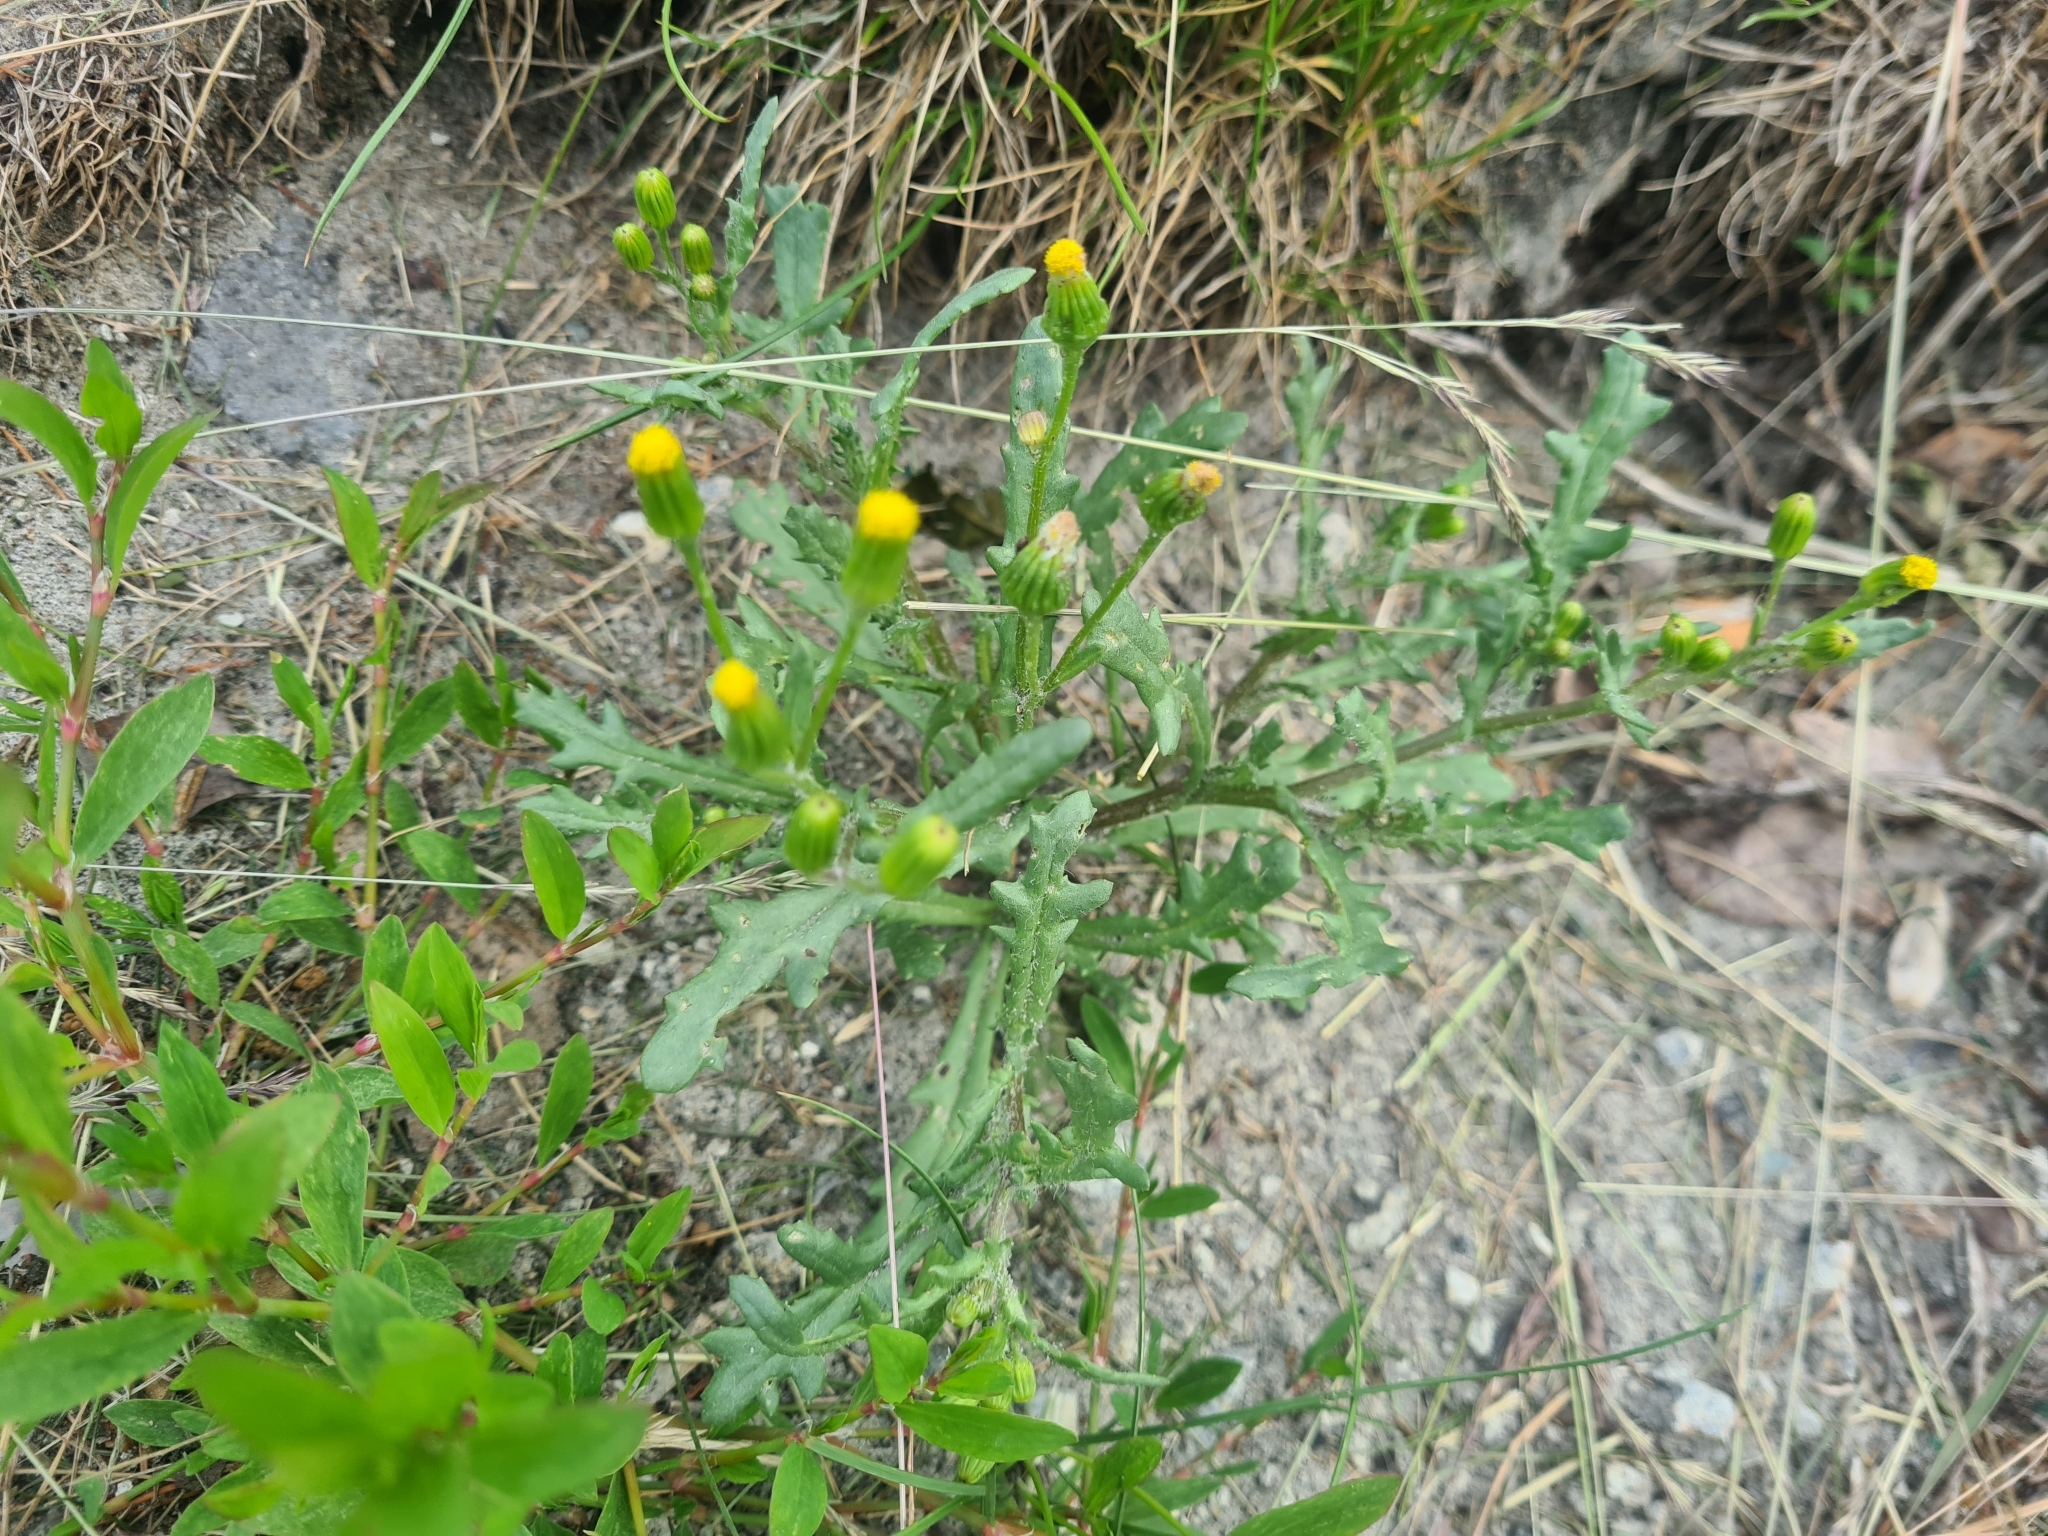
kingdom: Plantae
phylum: Tracheophyta
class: Magnoliopsida
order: Asterales
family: Asteraceae
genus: Senecio
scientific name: Senecio dubitabilis
